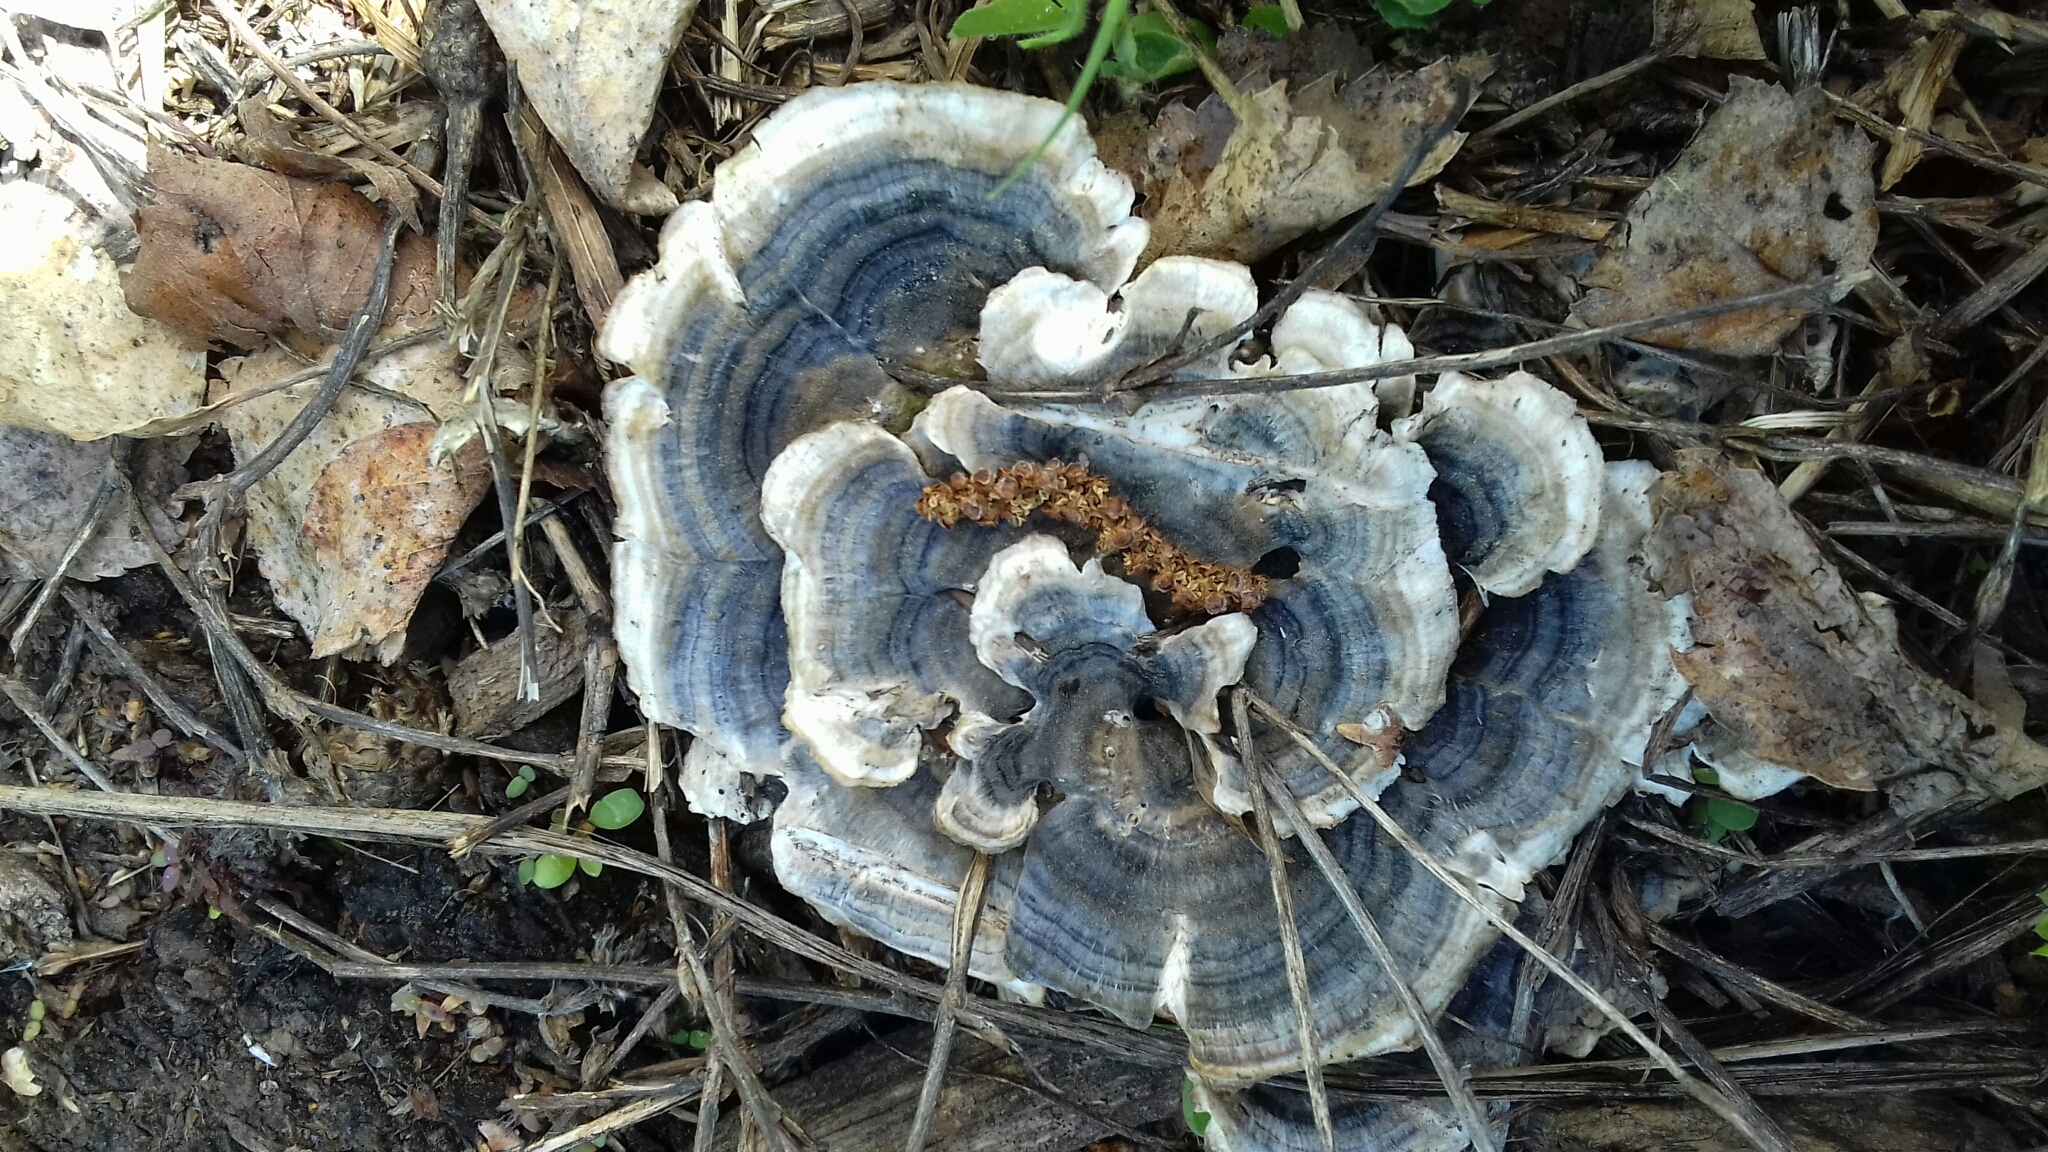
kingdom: Fungi
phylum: Basidiomycota
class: Agaricomycetes
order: Polyporales
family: Polyporaceae
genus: Trametes
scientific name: Trametes versicolor
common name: Turkeytail
